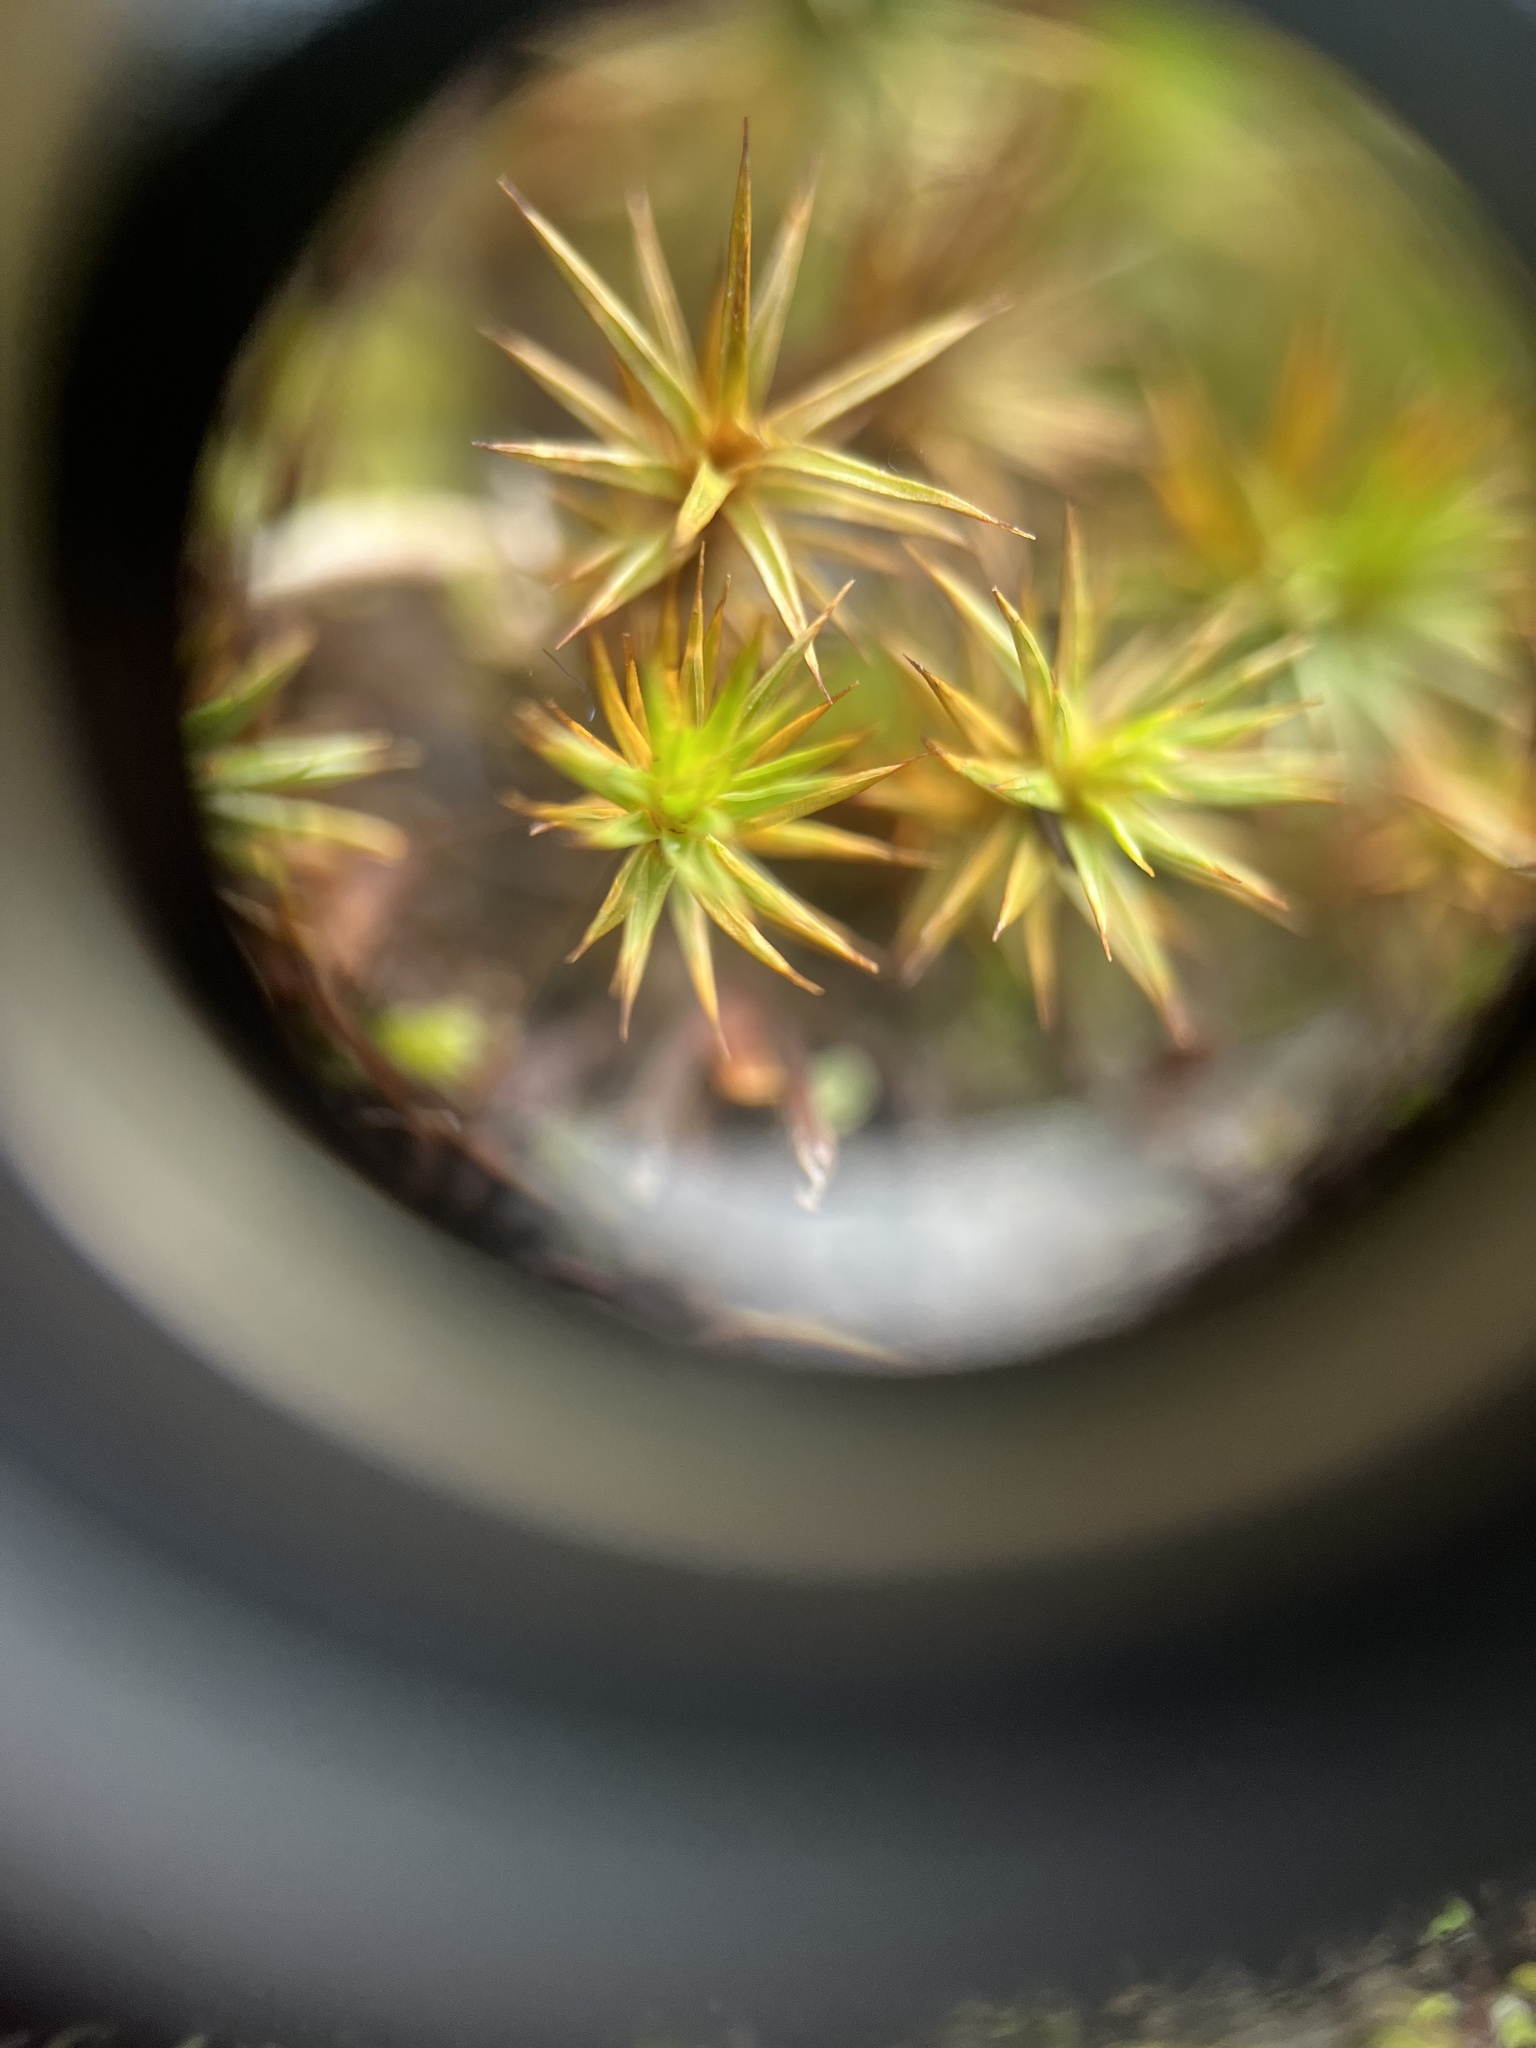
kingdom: Plantae
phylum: Bryophyta
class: Polytrichopsida
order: Polytrichales
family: Polytrichaceae
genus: Polytrichum
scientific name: Polytrichum juniperinum
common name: Juniper haircap moss
